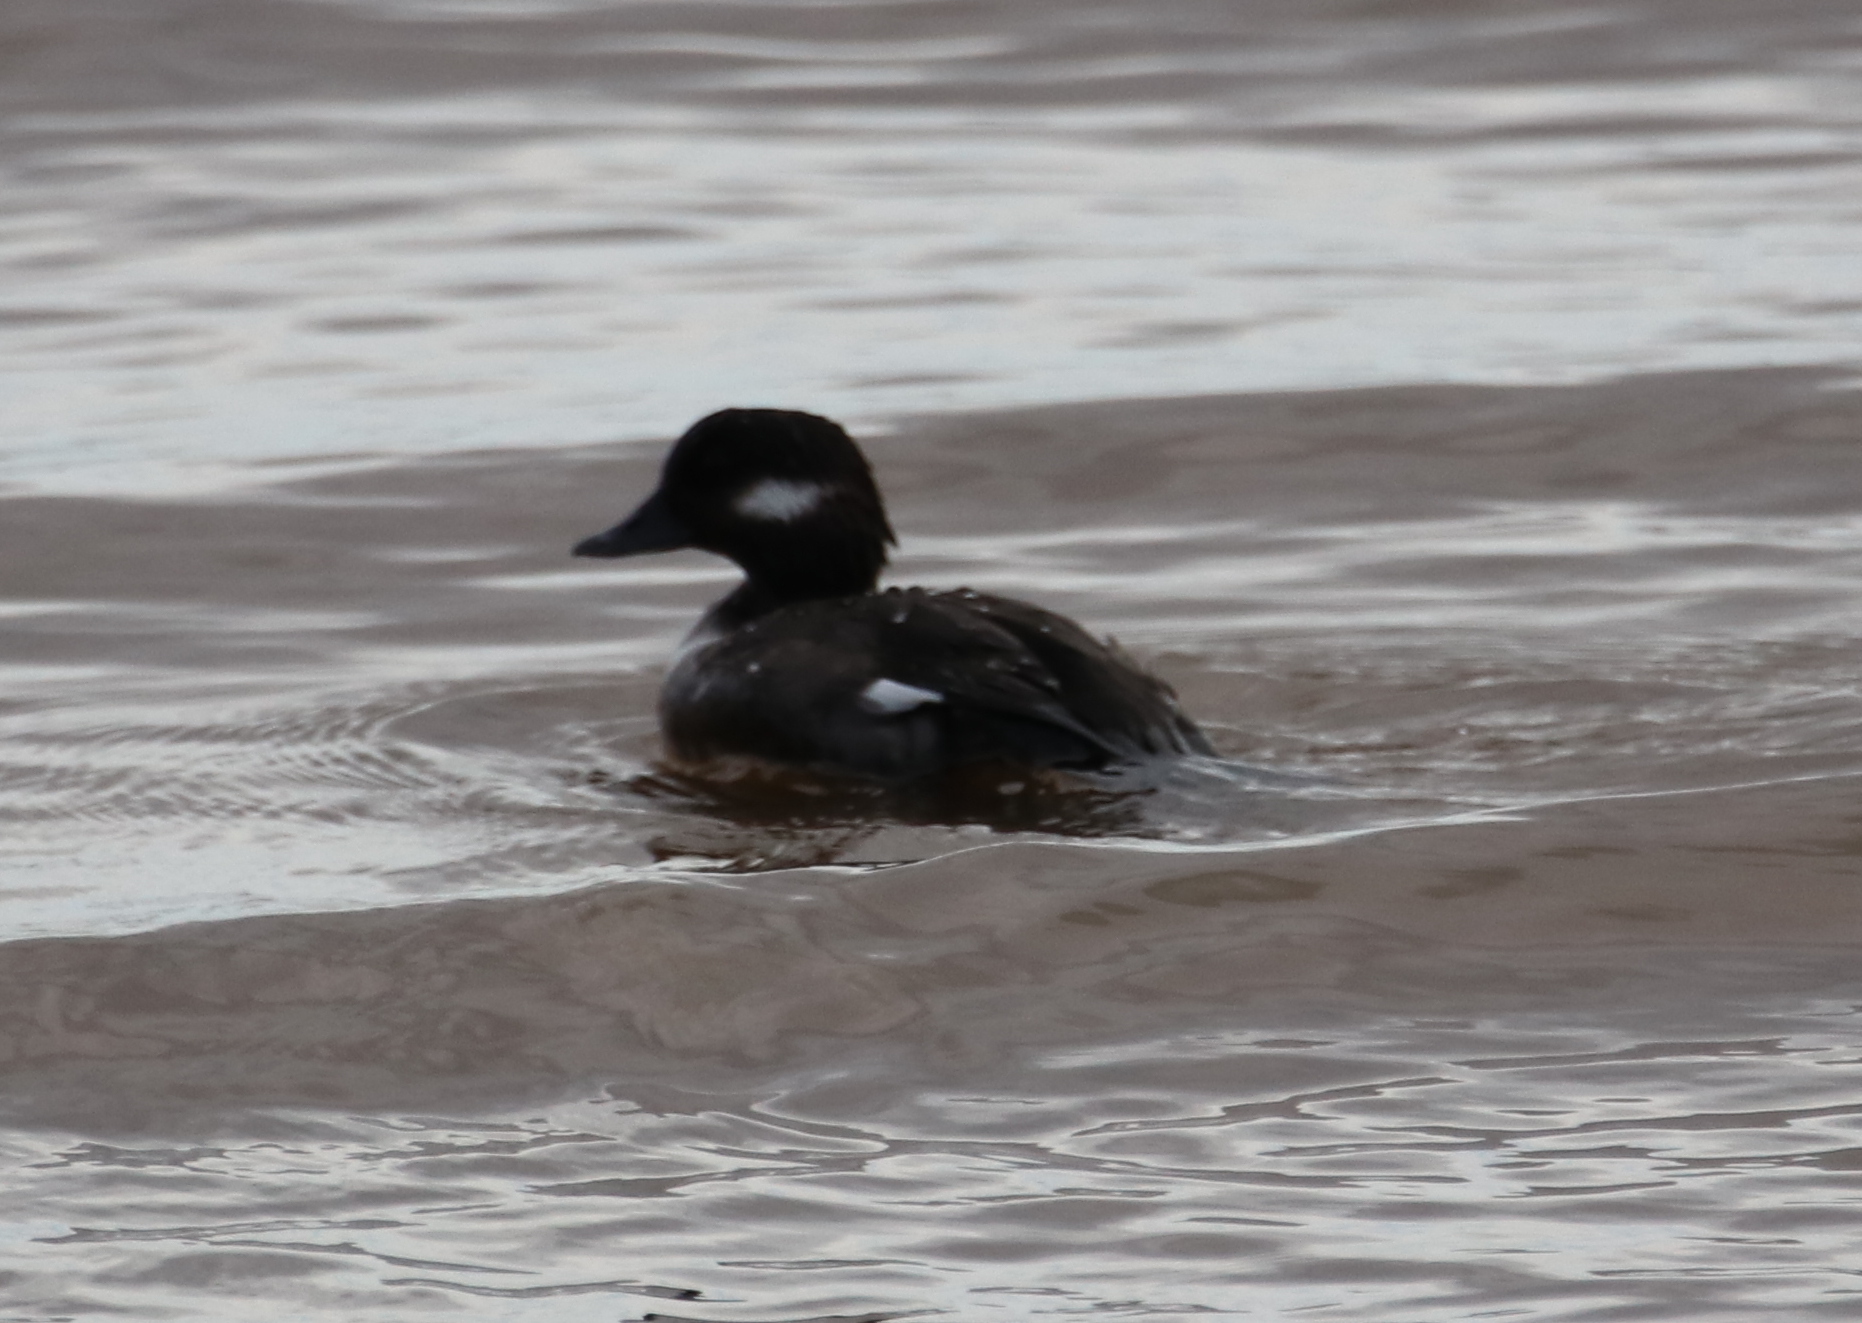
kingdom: Animalia
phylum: Chordata
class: Aves
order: Anseriformes
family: Anatidae
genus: Bucephala
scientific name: Bucephala albeola
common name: Bufflehead
